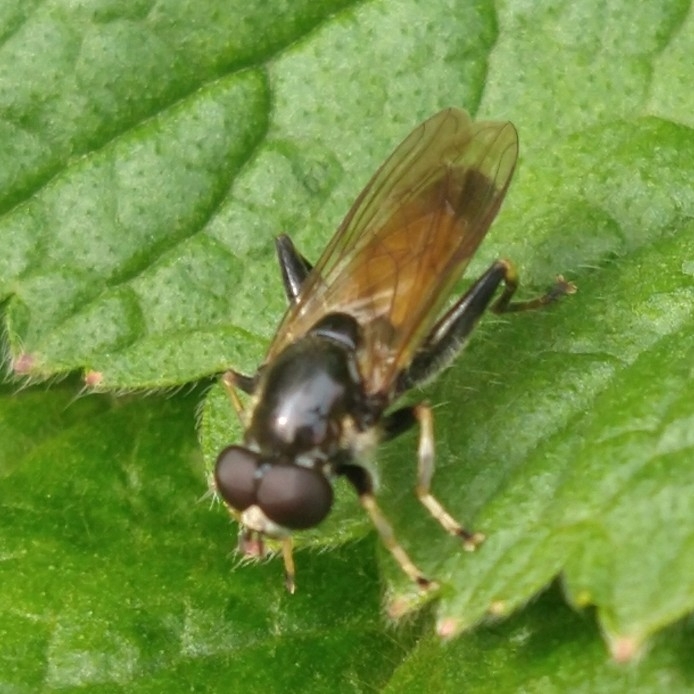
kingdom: Animalia
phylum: Arthropoda
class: Insecta
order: Diptera
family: Syrphidae
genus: Xylota
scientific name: Xylota segnis
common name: Brown-toed forest fly
